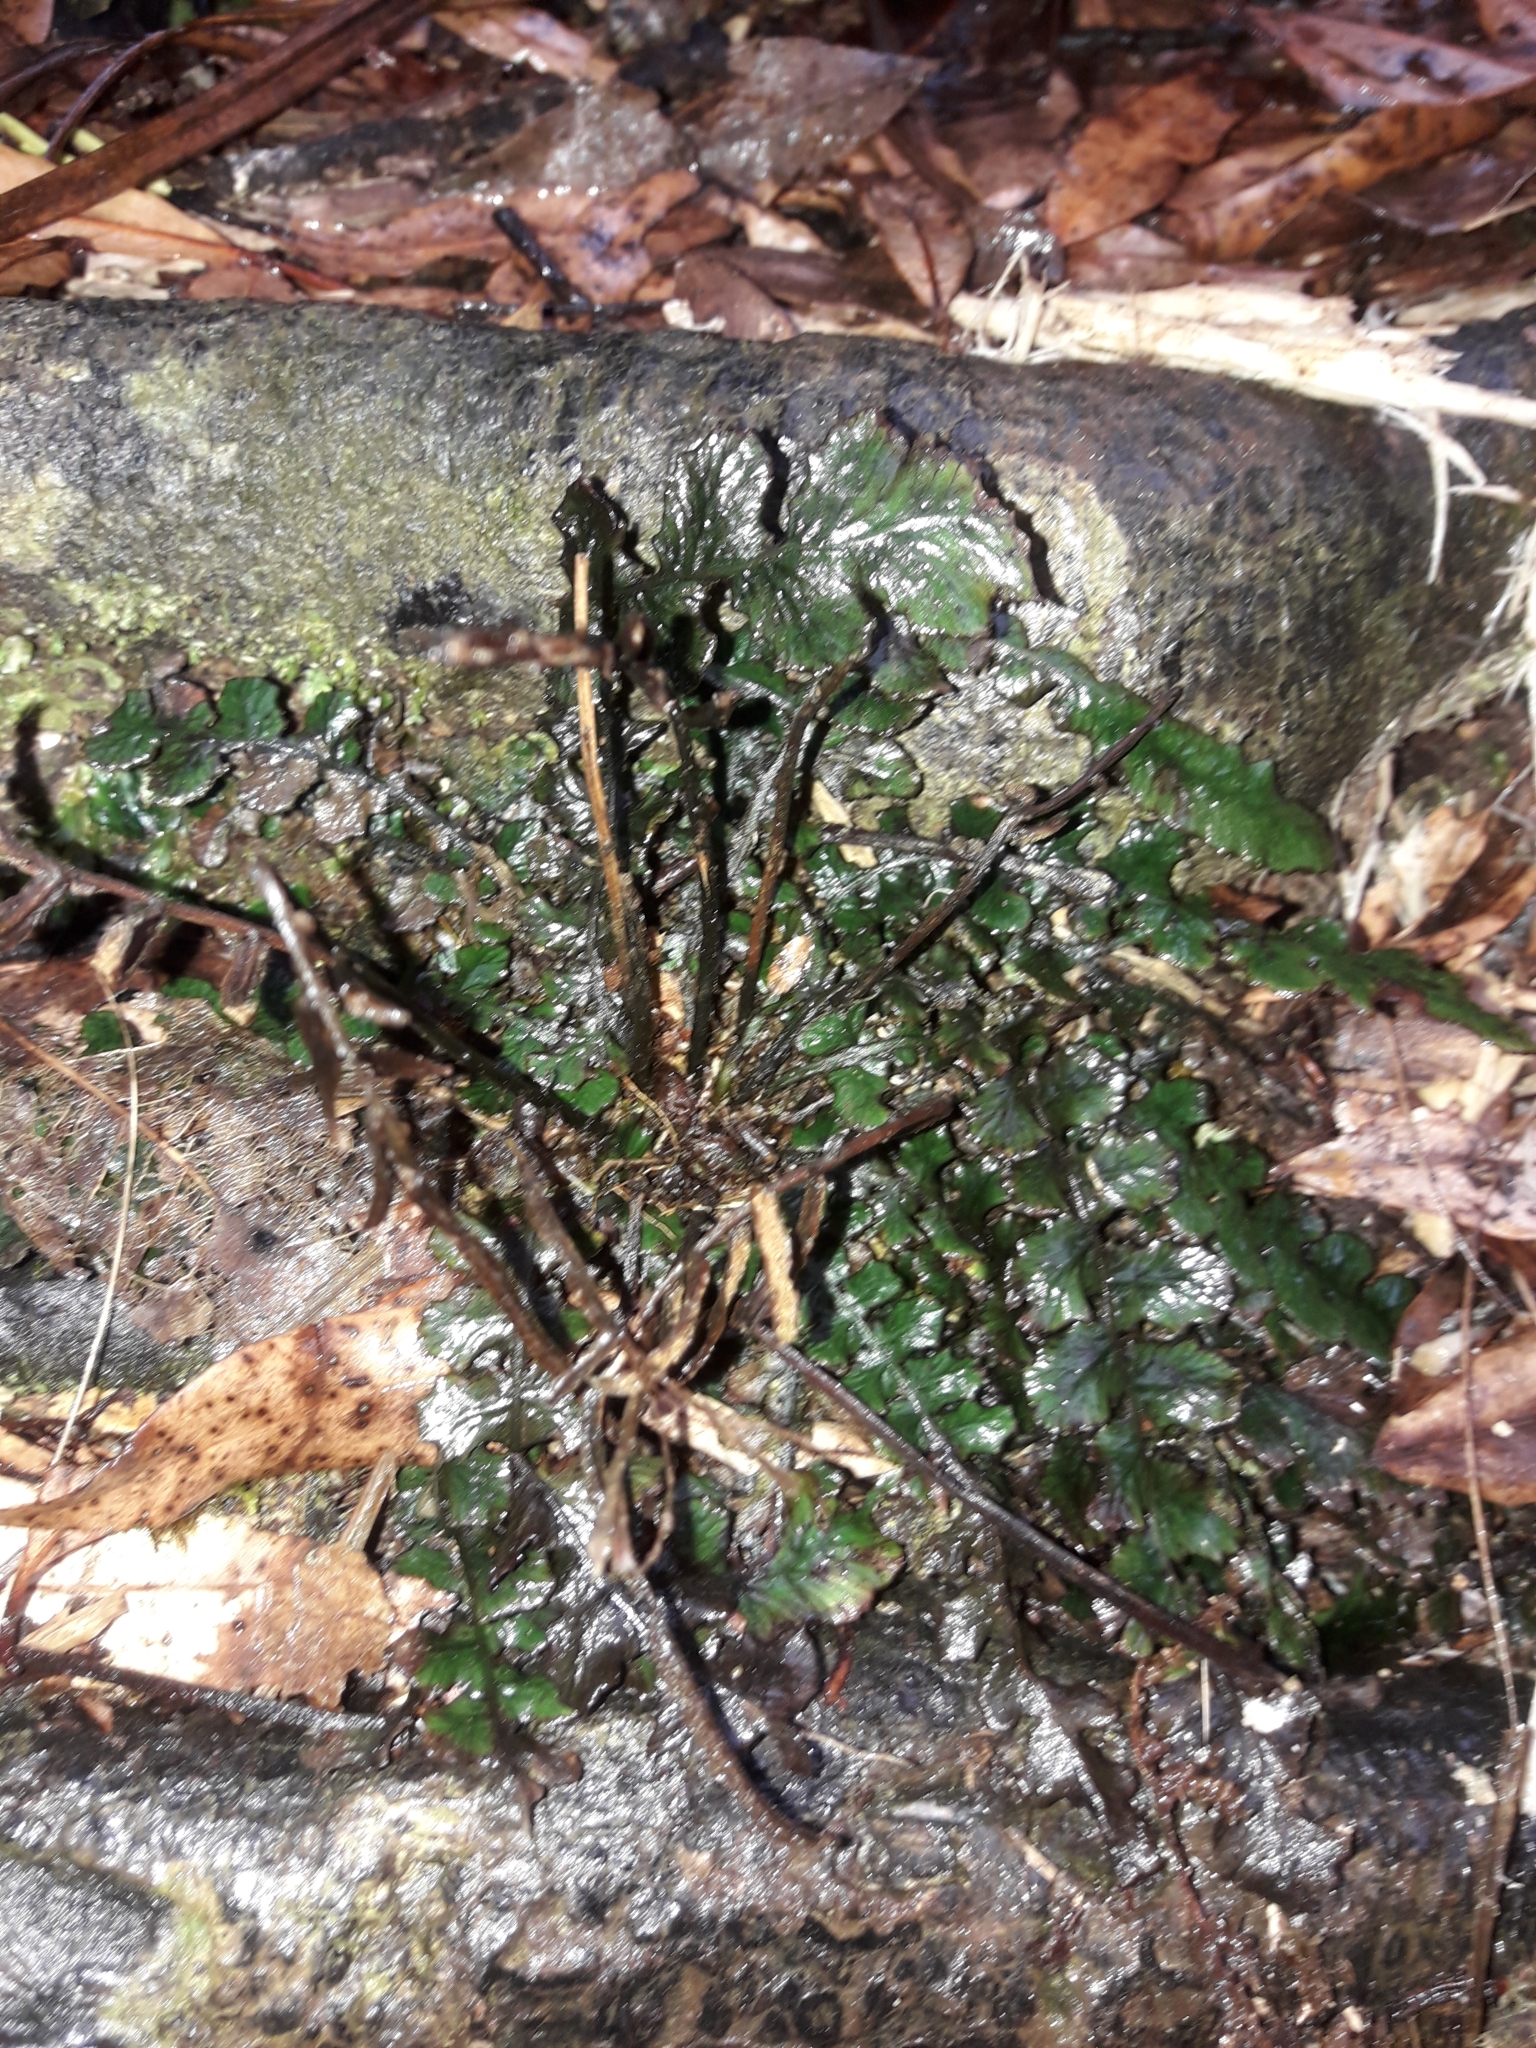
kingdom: Plantae
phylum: Tracheophyta
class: Polypodiopsida
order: Polypodiales
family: Blechnaceae
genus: Cranfillia
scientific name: Cranfillia nigra
